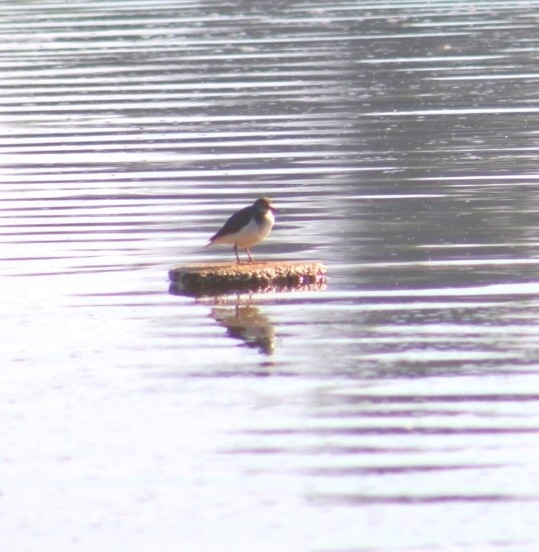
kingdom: Animalia
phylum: Chordata
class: Aves
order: Charadriiformes
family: Scolopacidae
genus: Actitis
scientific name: Actitis macularius
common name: Spotted sandpiper
